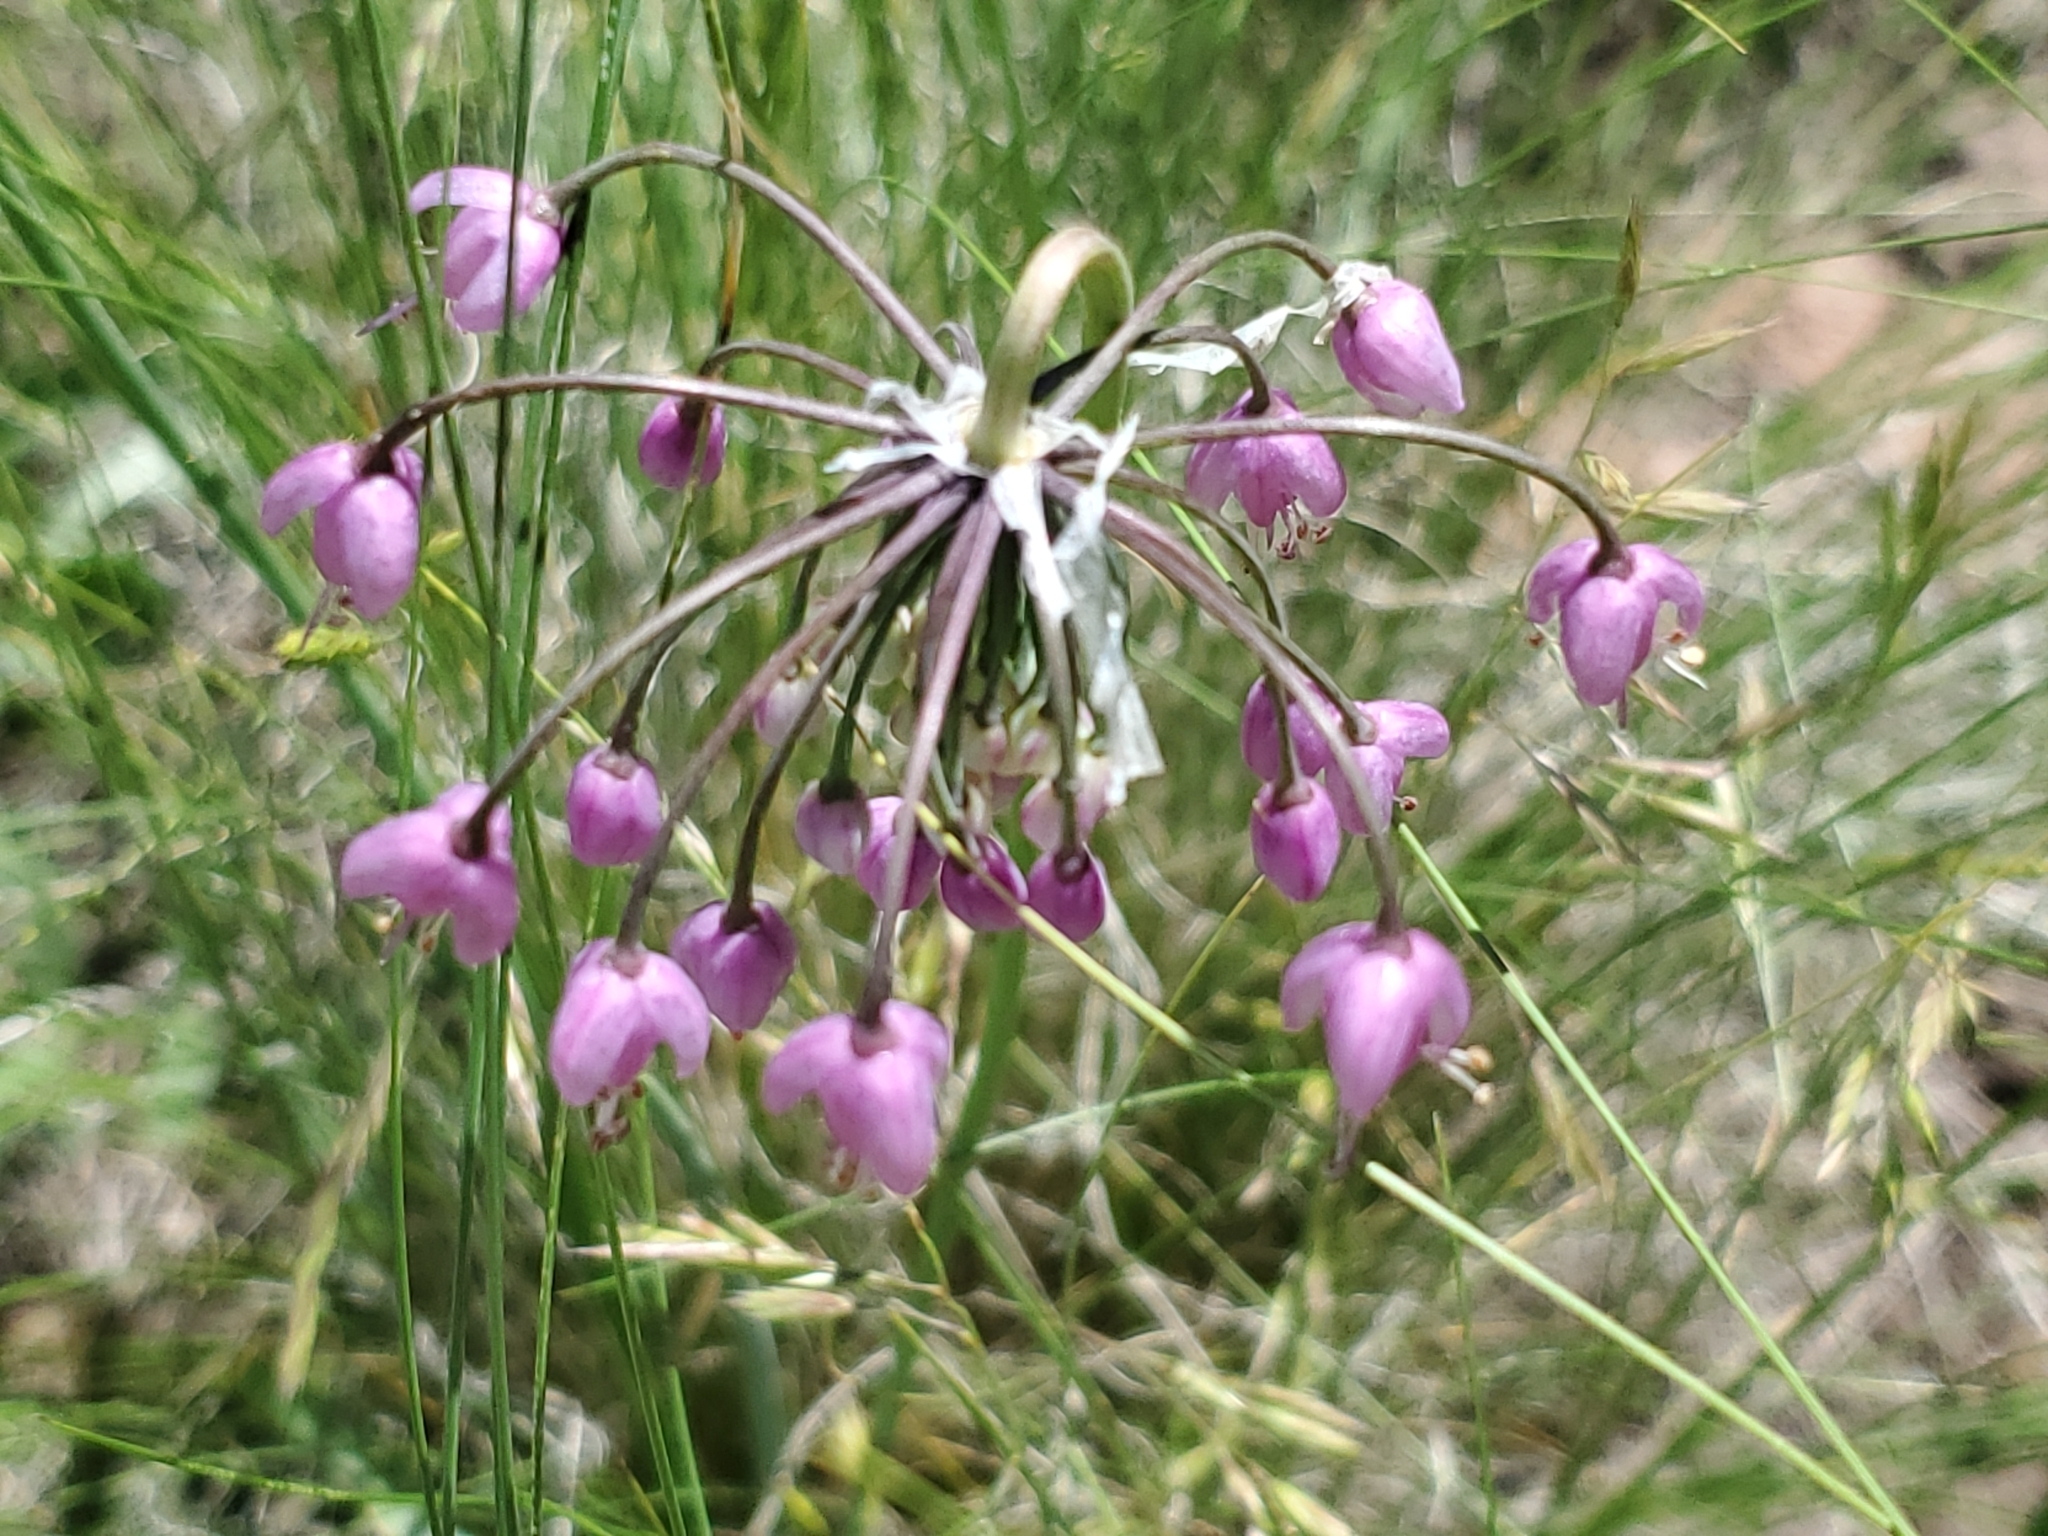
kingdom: Plantae
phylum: Tracheophyta
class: Liliopsida
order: Asparagales
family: Amaryllidaceae
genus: Allium
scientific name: Allium cernuum
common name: Nodding onion
